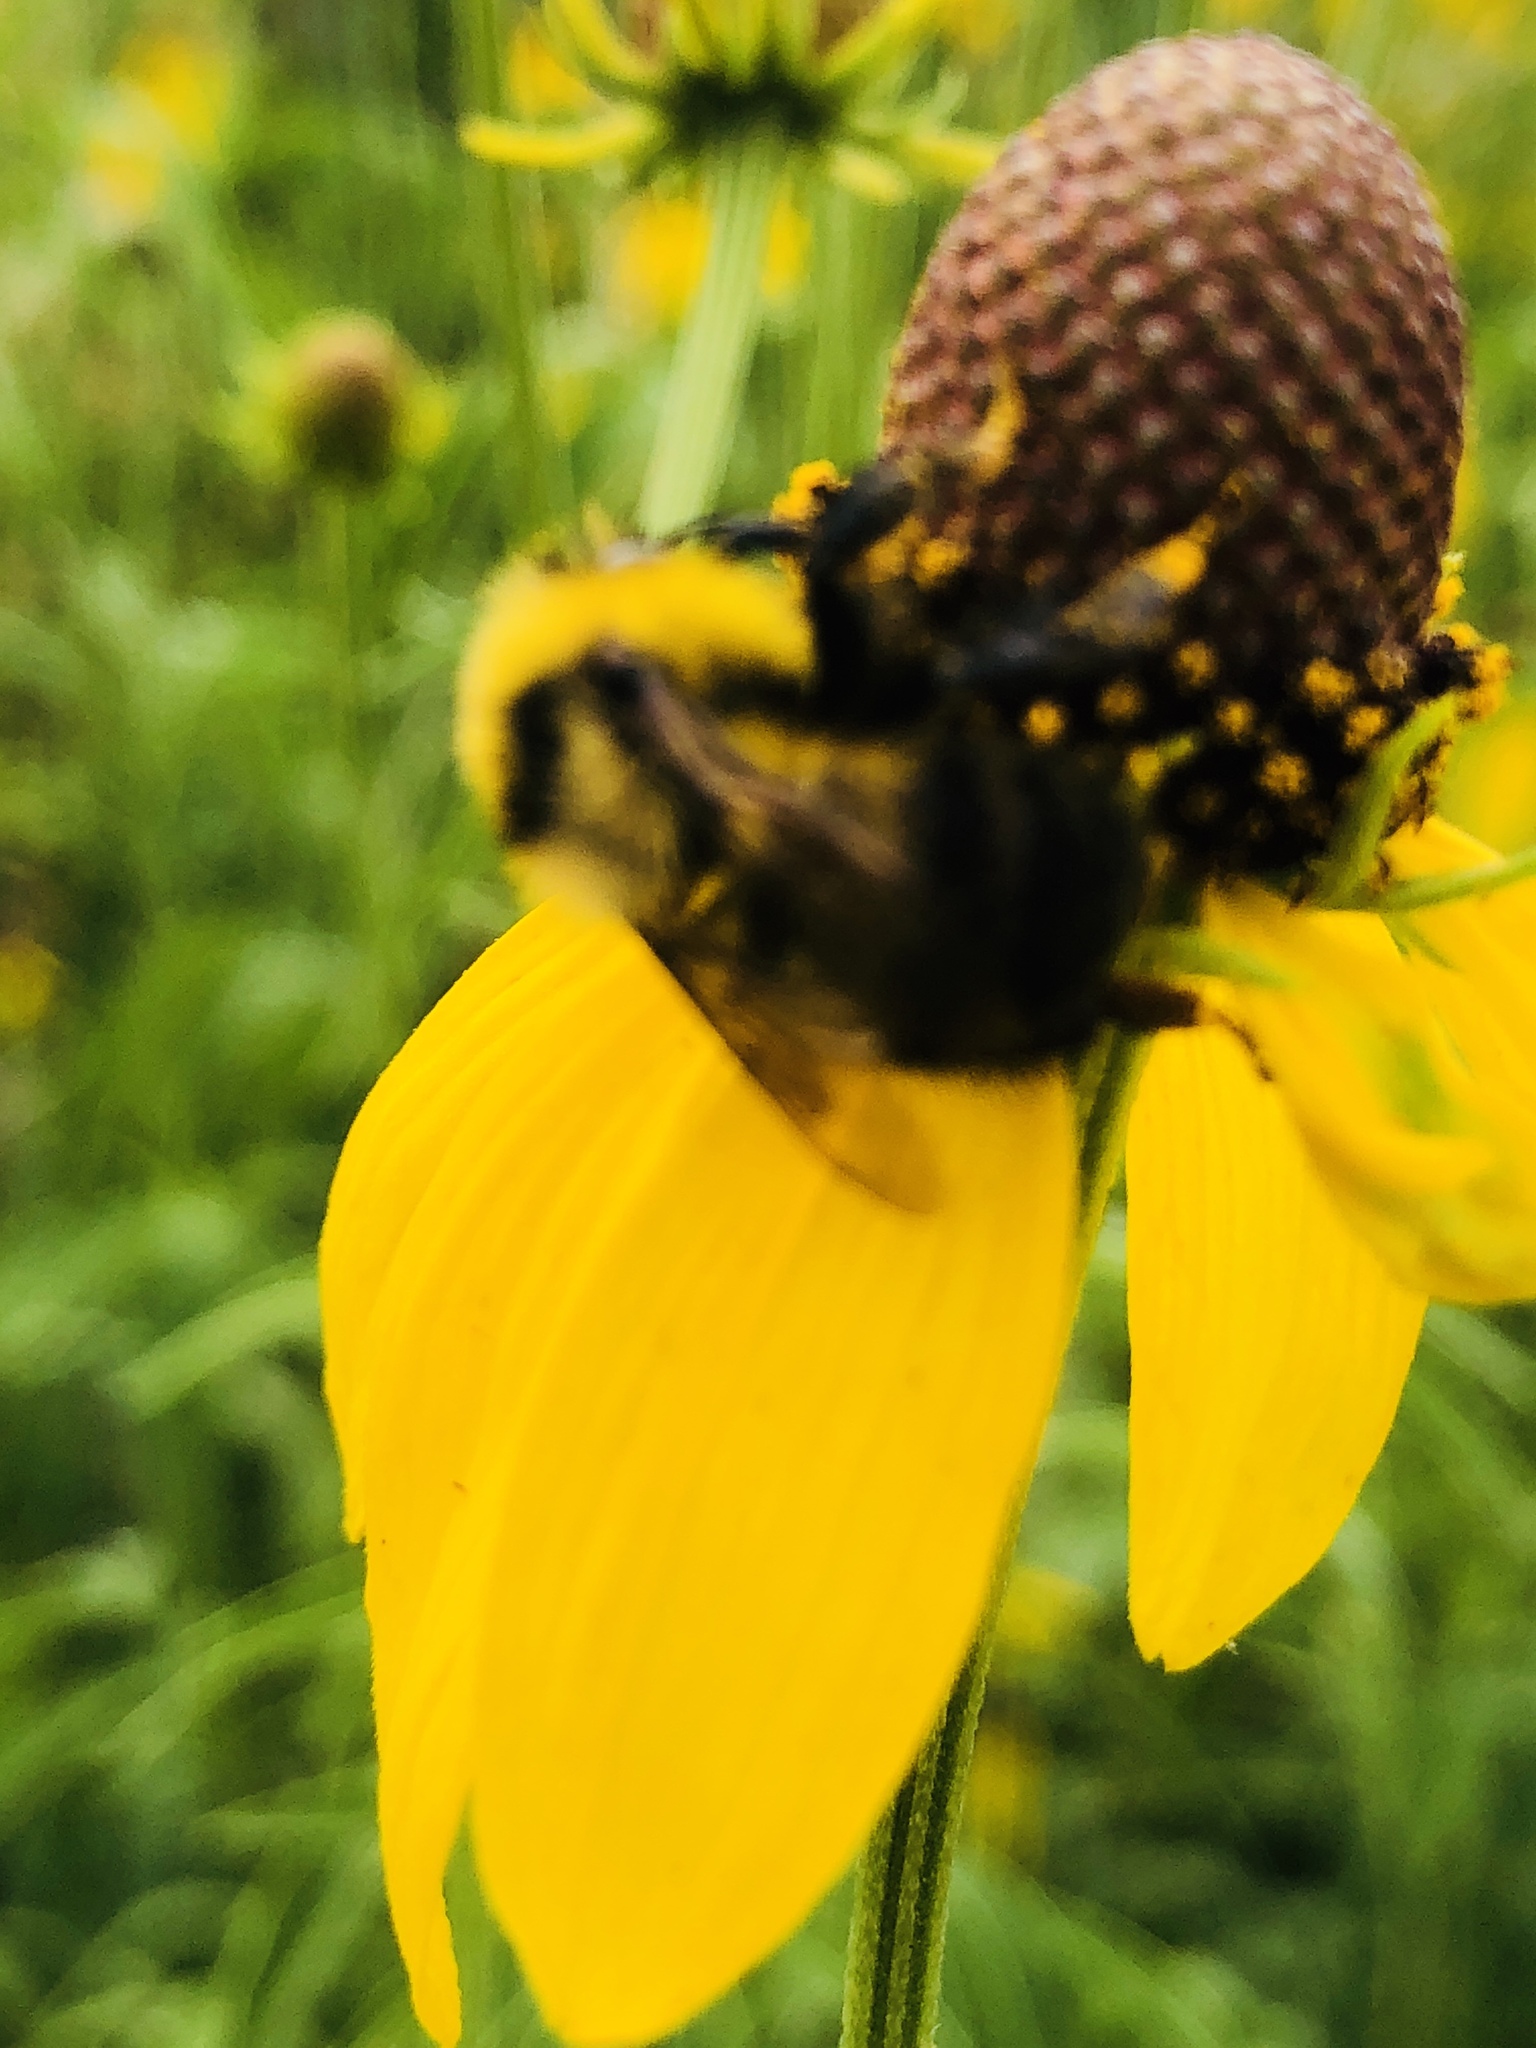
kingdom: Animalia
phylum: Arthropoda
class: Insecta
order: Hymenoptera
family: Apidae
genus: Bombus
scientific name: Bombus rufocinctus
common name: Red-belted bumble bee
